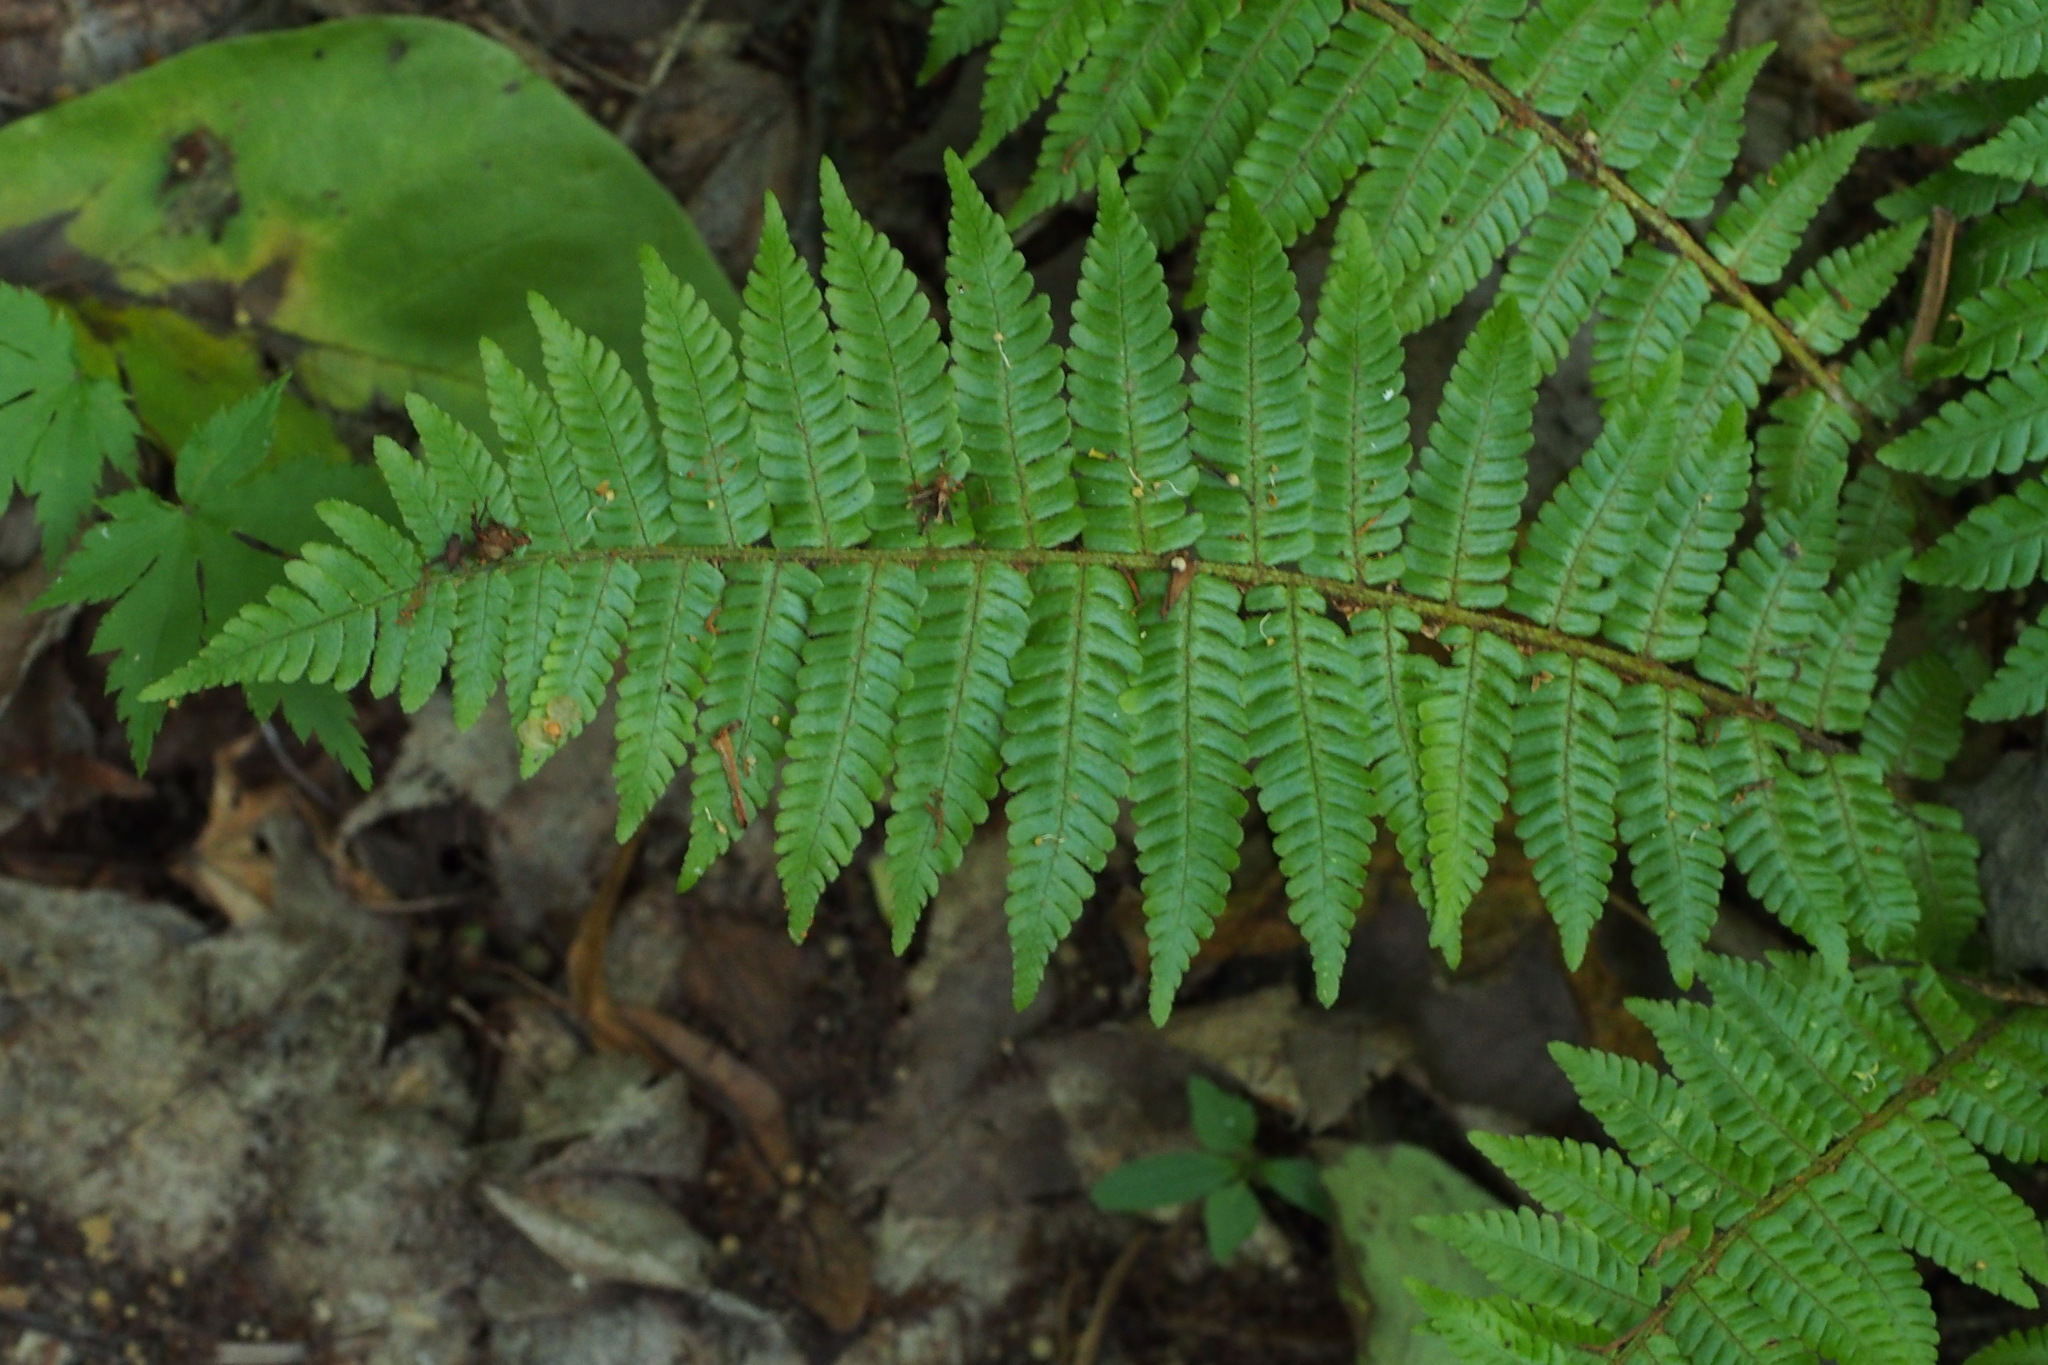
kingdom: Plantae
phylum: Tracheophyta
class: Polypodiopsida
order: Polypodiales
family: Dryopteridaceae
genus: Dryopteris
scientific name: Dryopteris crassirhizoma
